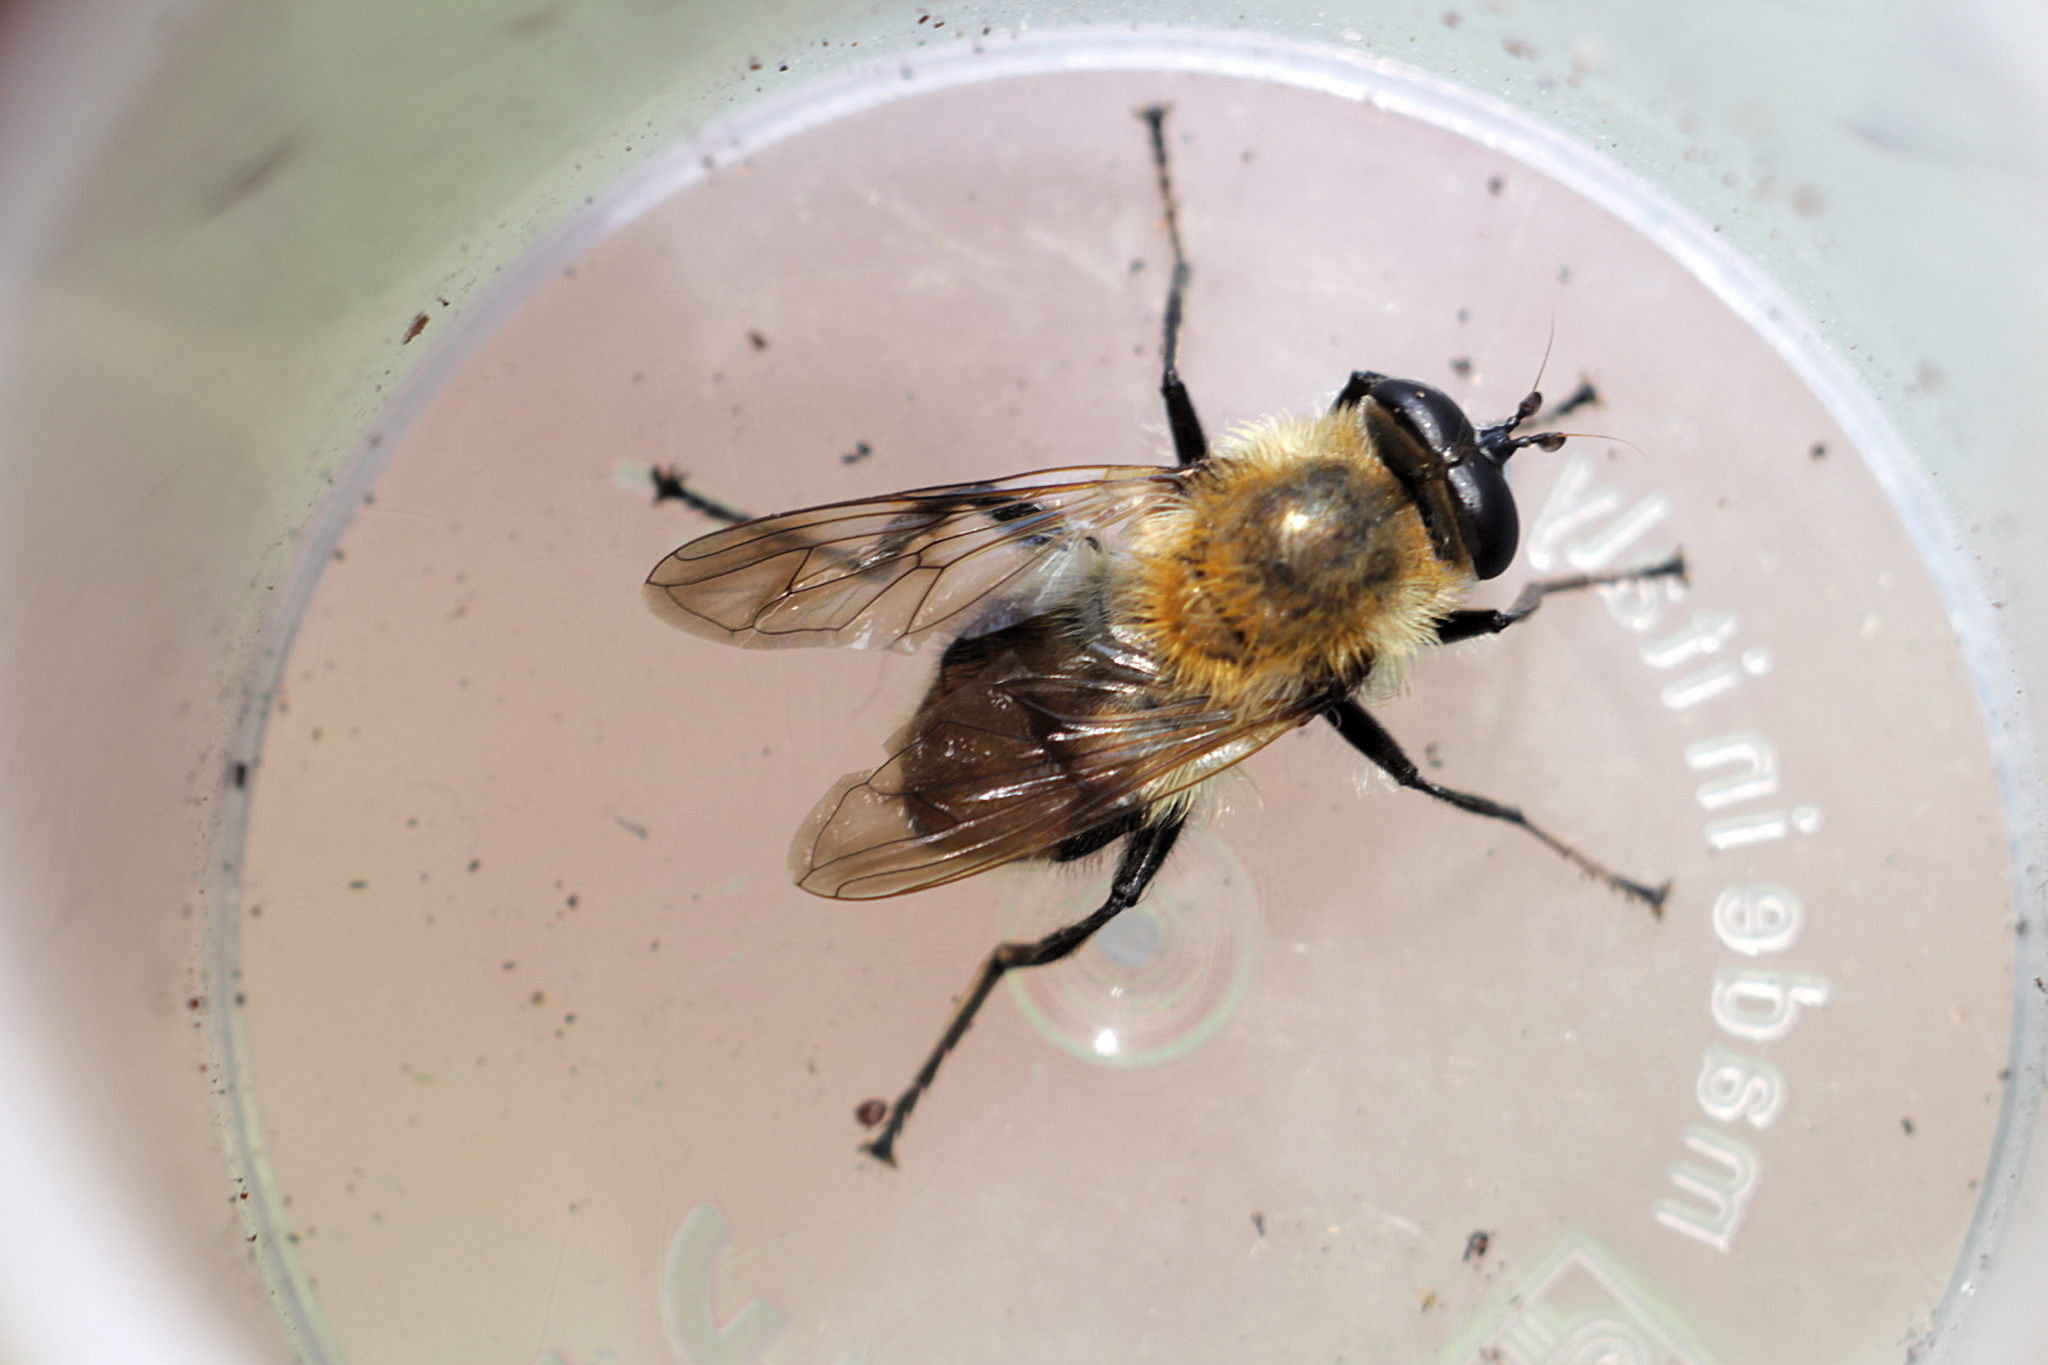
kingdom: Animalia
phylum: Arthropoda
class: Insecta
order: Diptera
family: Syrphidae
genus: Criorhina
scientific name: Criorhina floccosa
